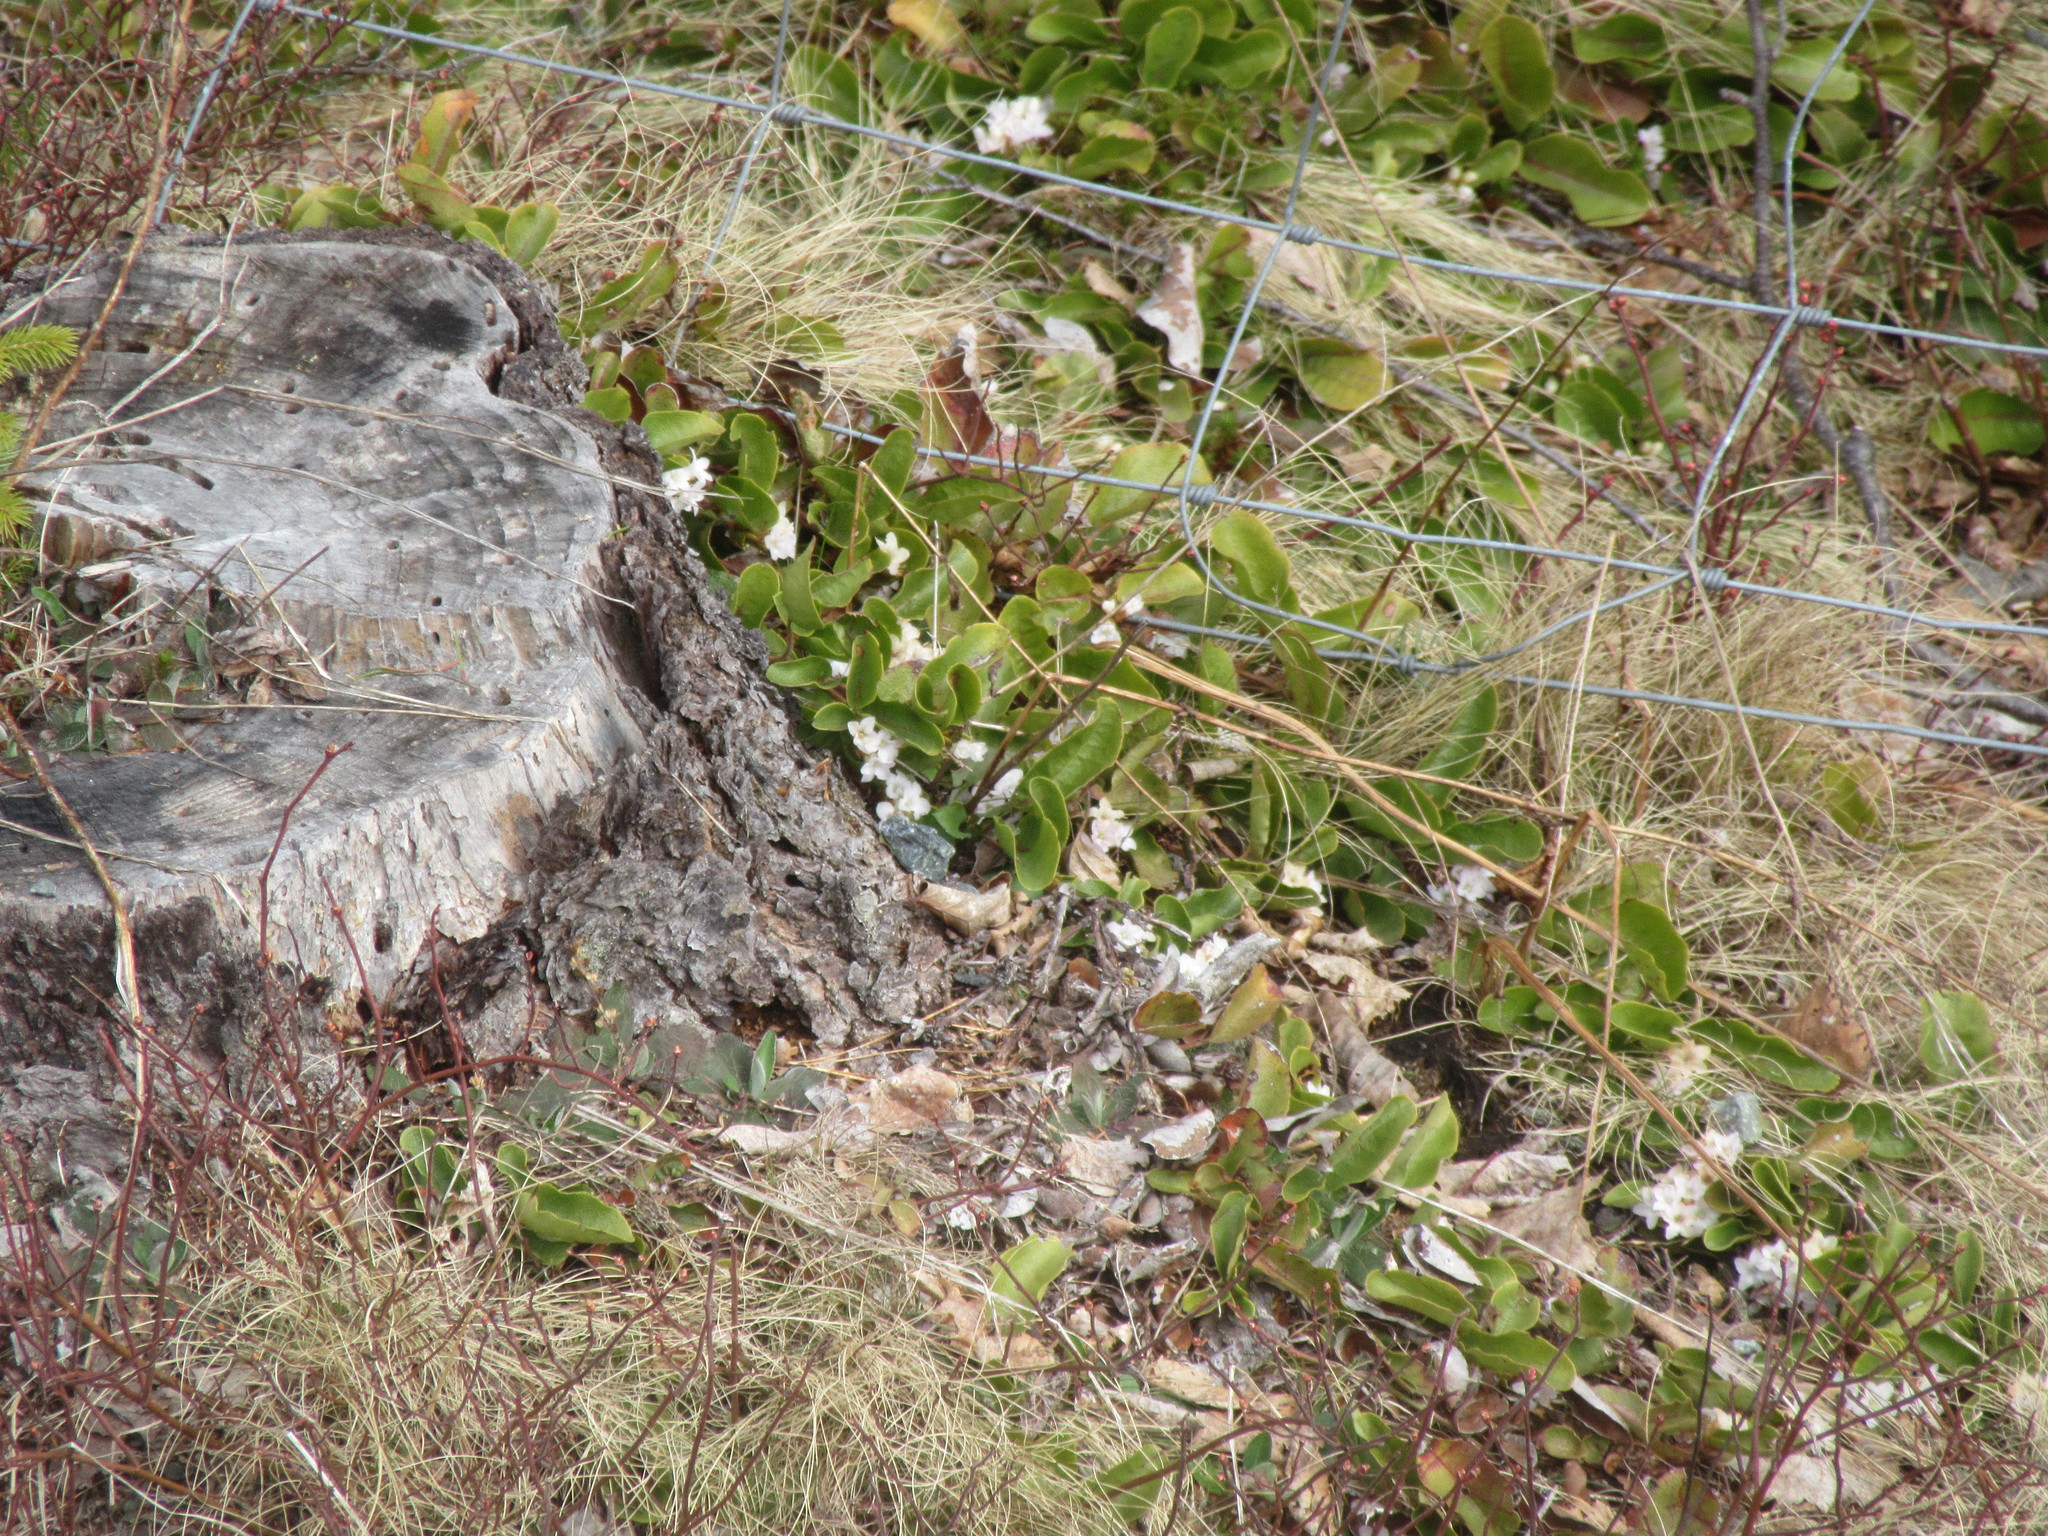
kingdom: Plantae
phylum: Tracheophyta
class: Magnoliopsida
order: Ericales
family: Ericaceae
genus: Epigaea
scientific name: Epigaea repens
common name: Gravelroot
